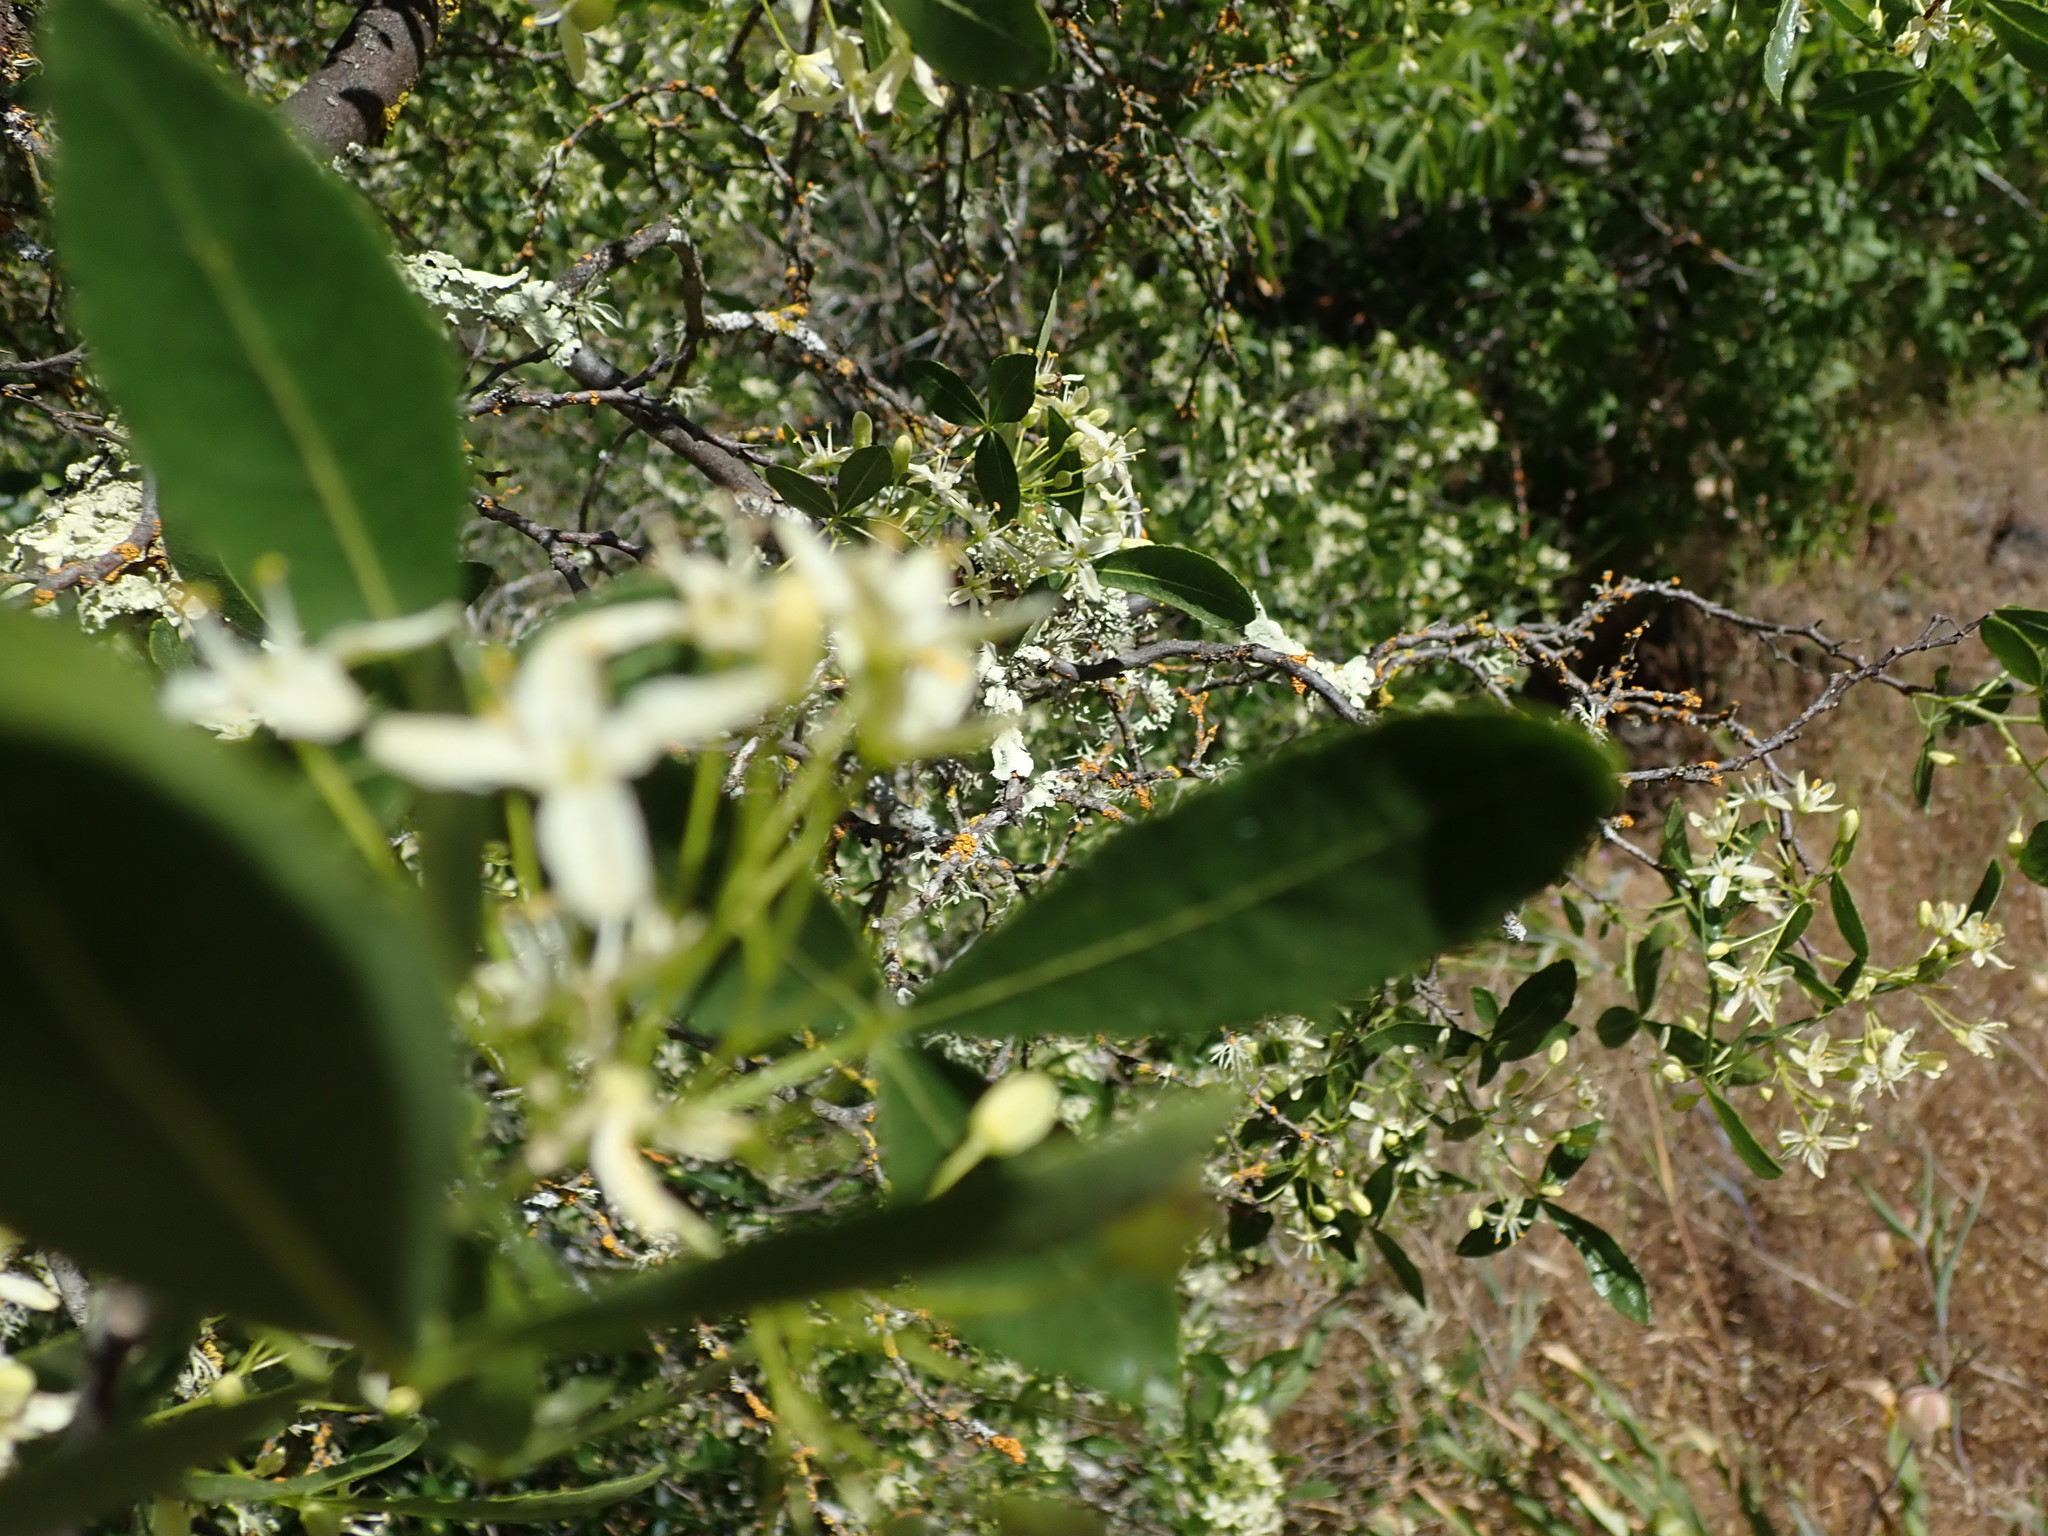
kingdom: Plantae
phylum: Tracheophyta
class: Magnoliopsida
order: Sapindales
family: Rutaceae
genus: Ptelea
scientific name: Ptelea crenulata
